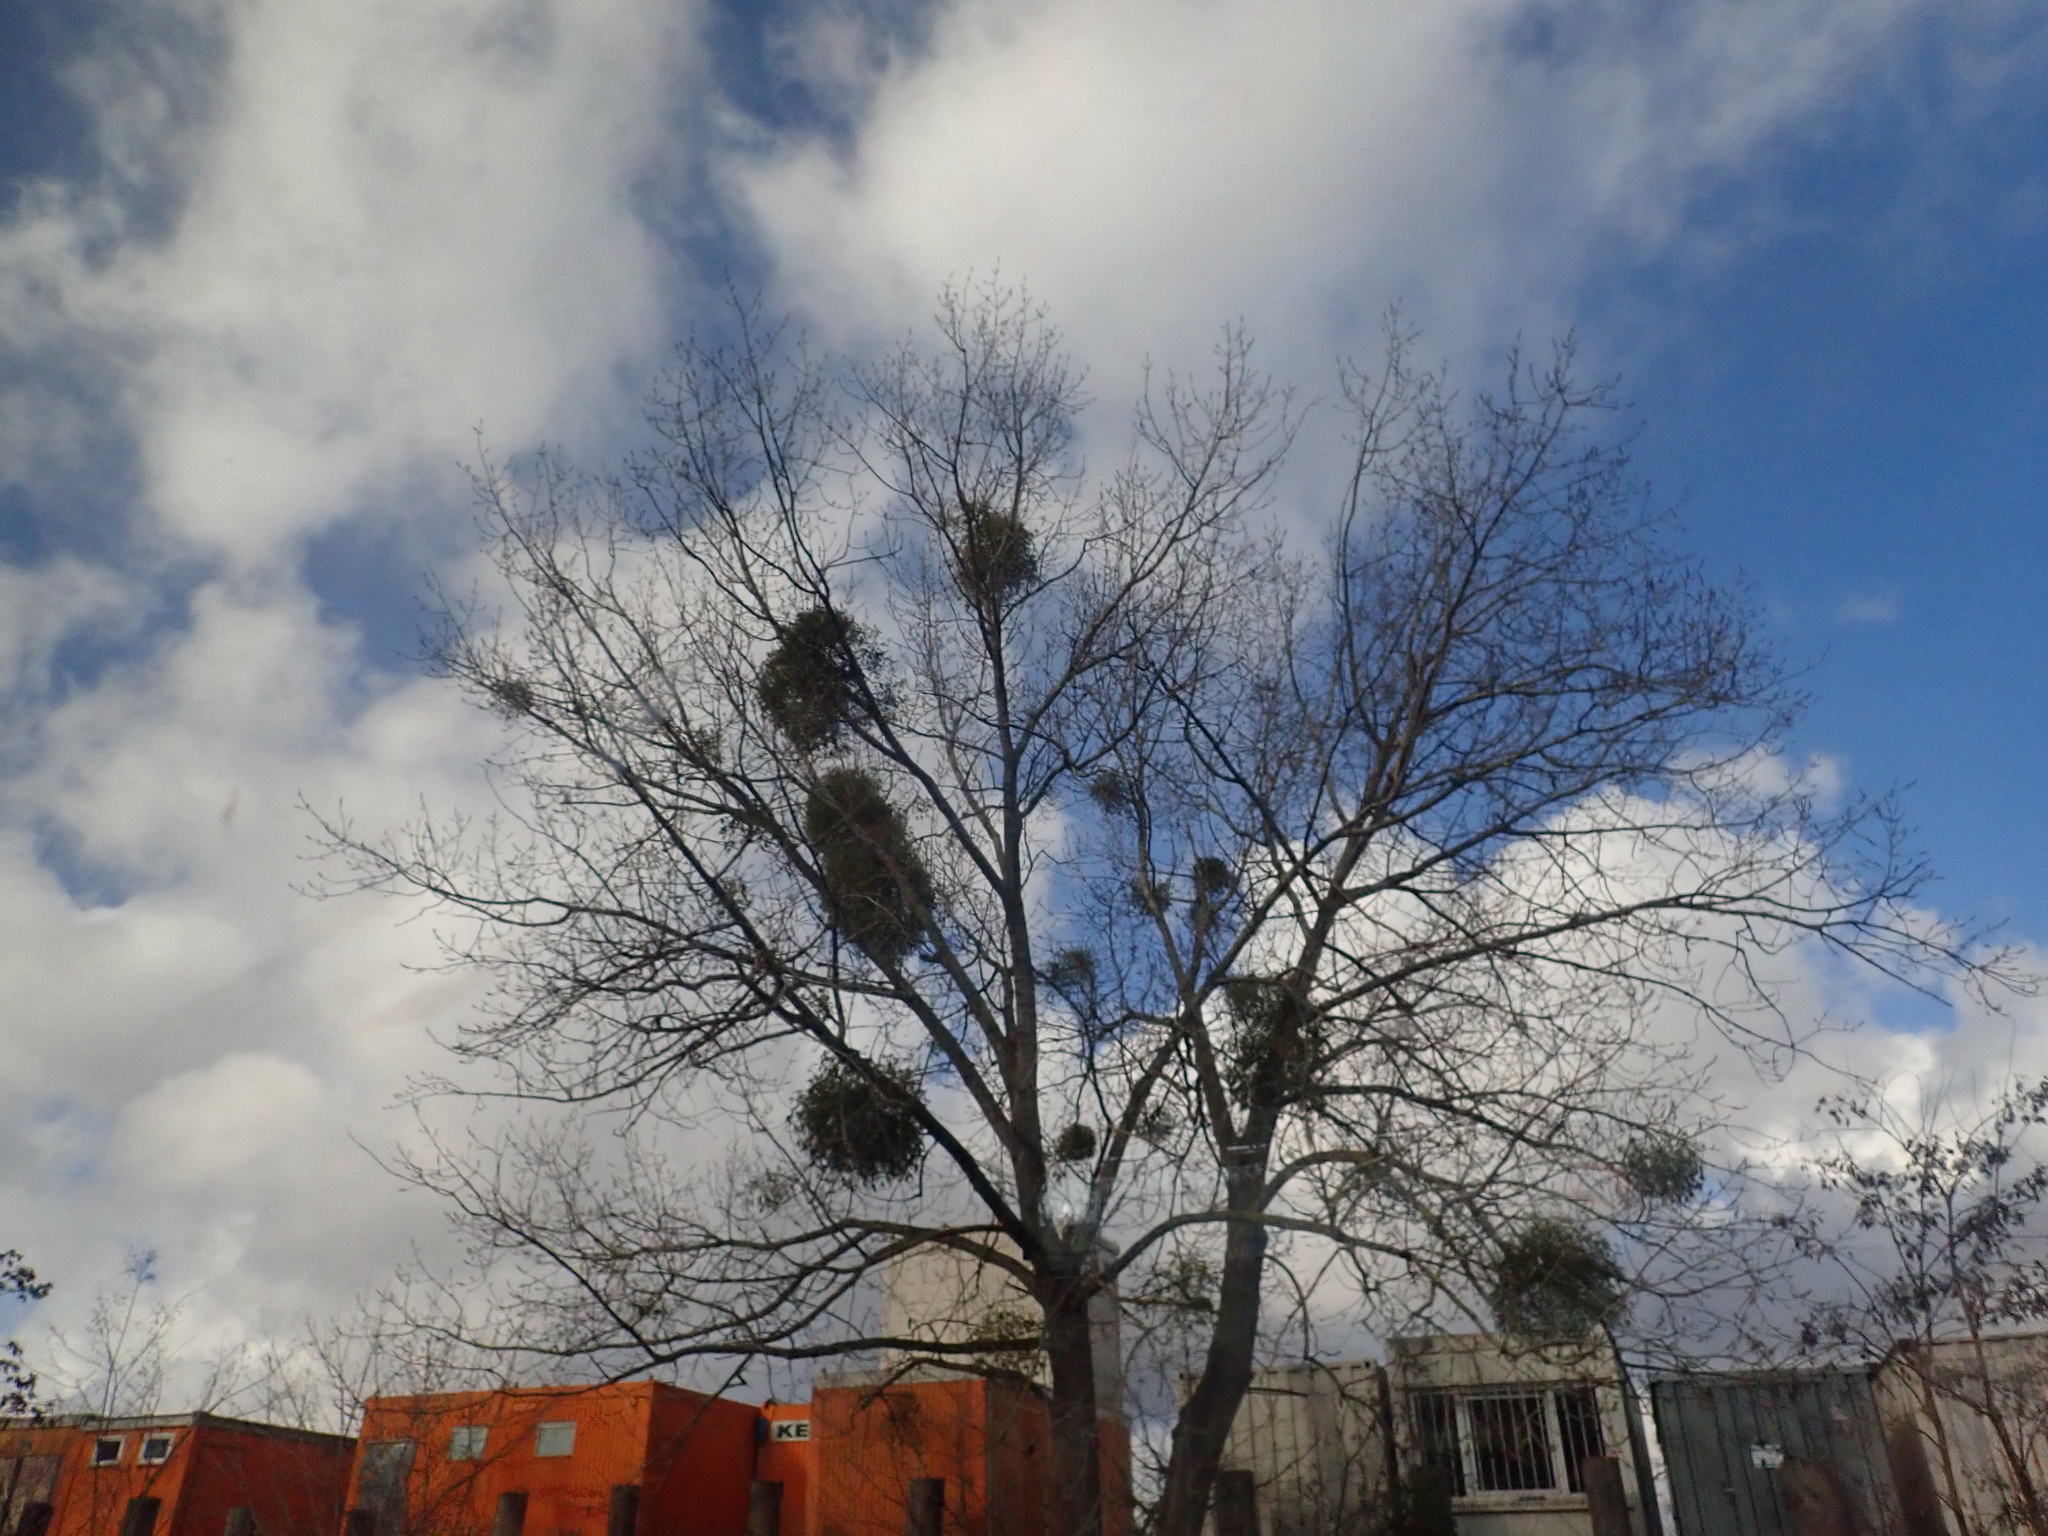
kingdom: Plantae
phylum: Tracheophyta
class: Magnoliopsida
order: Santalales
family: Viscaceae
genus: Viscum
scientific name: Viscum album
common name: Mistletoe
